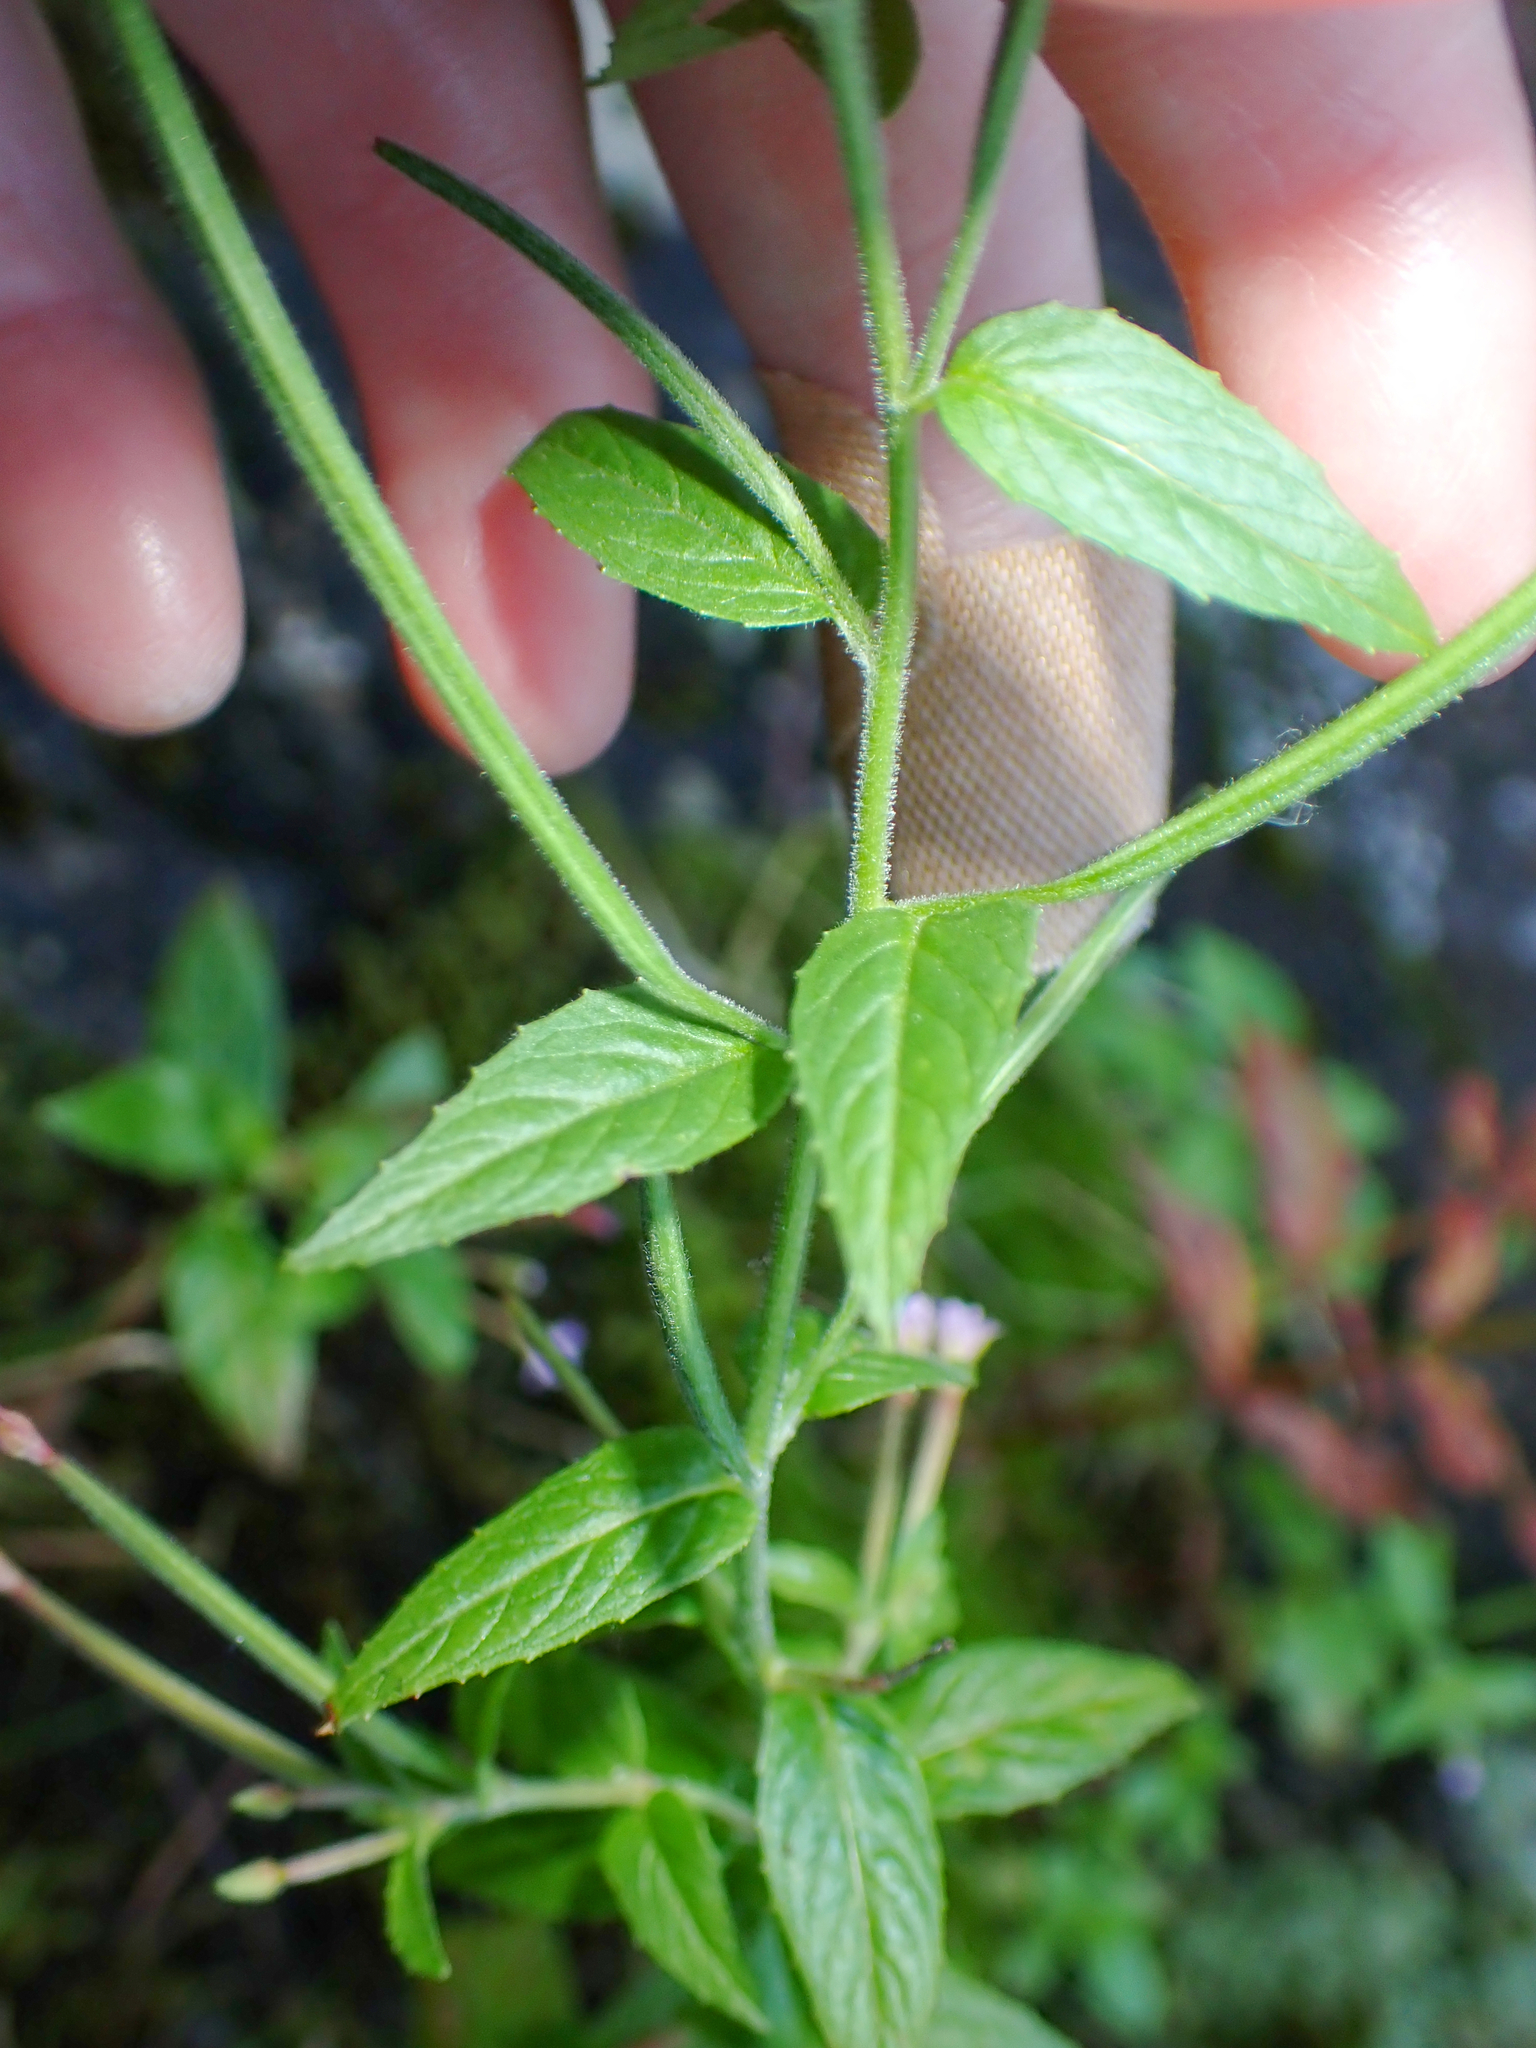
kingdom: Plantae
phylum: Tracheophyta
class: Magnoliopsida
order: Myrtales
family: Onagraceae
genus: Epilobium
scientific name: Epilobium ciliatum
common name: American willowherb
